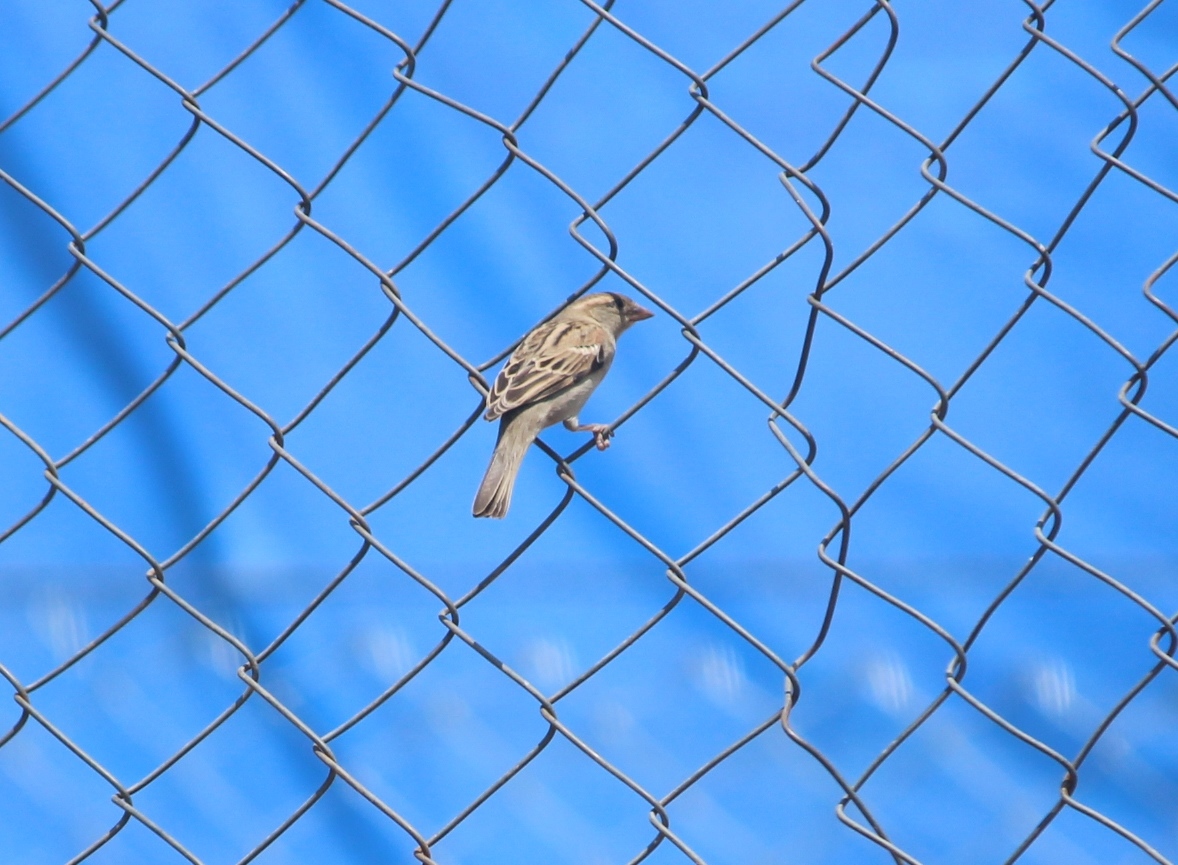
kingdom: Animalia
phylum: Chordata
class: Aves
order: Passeriformes
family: Passeridae
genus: Passer
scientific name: Passer domesticus
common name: House sparrow
